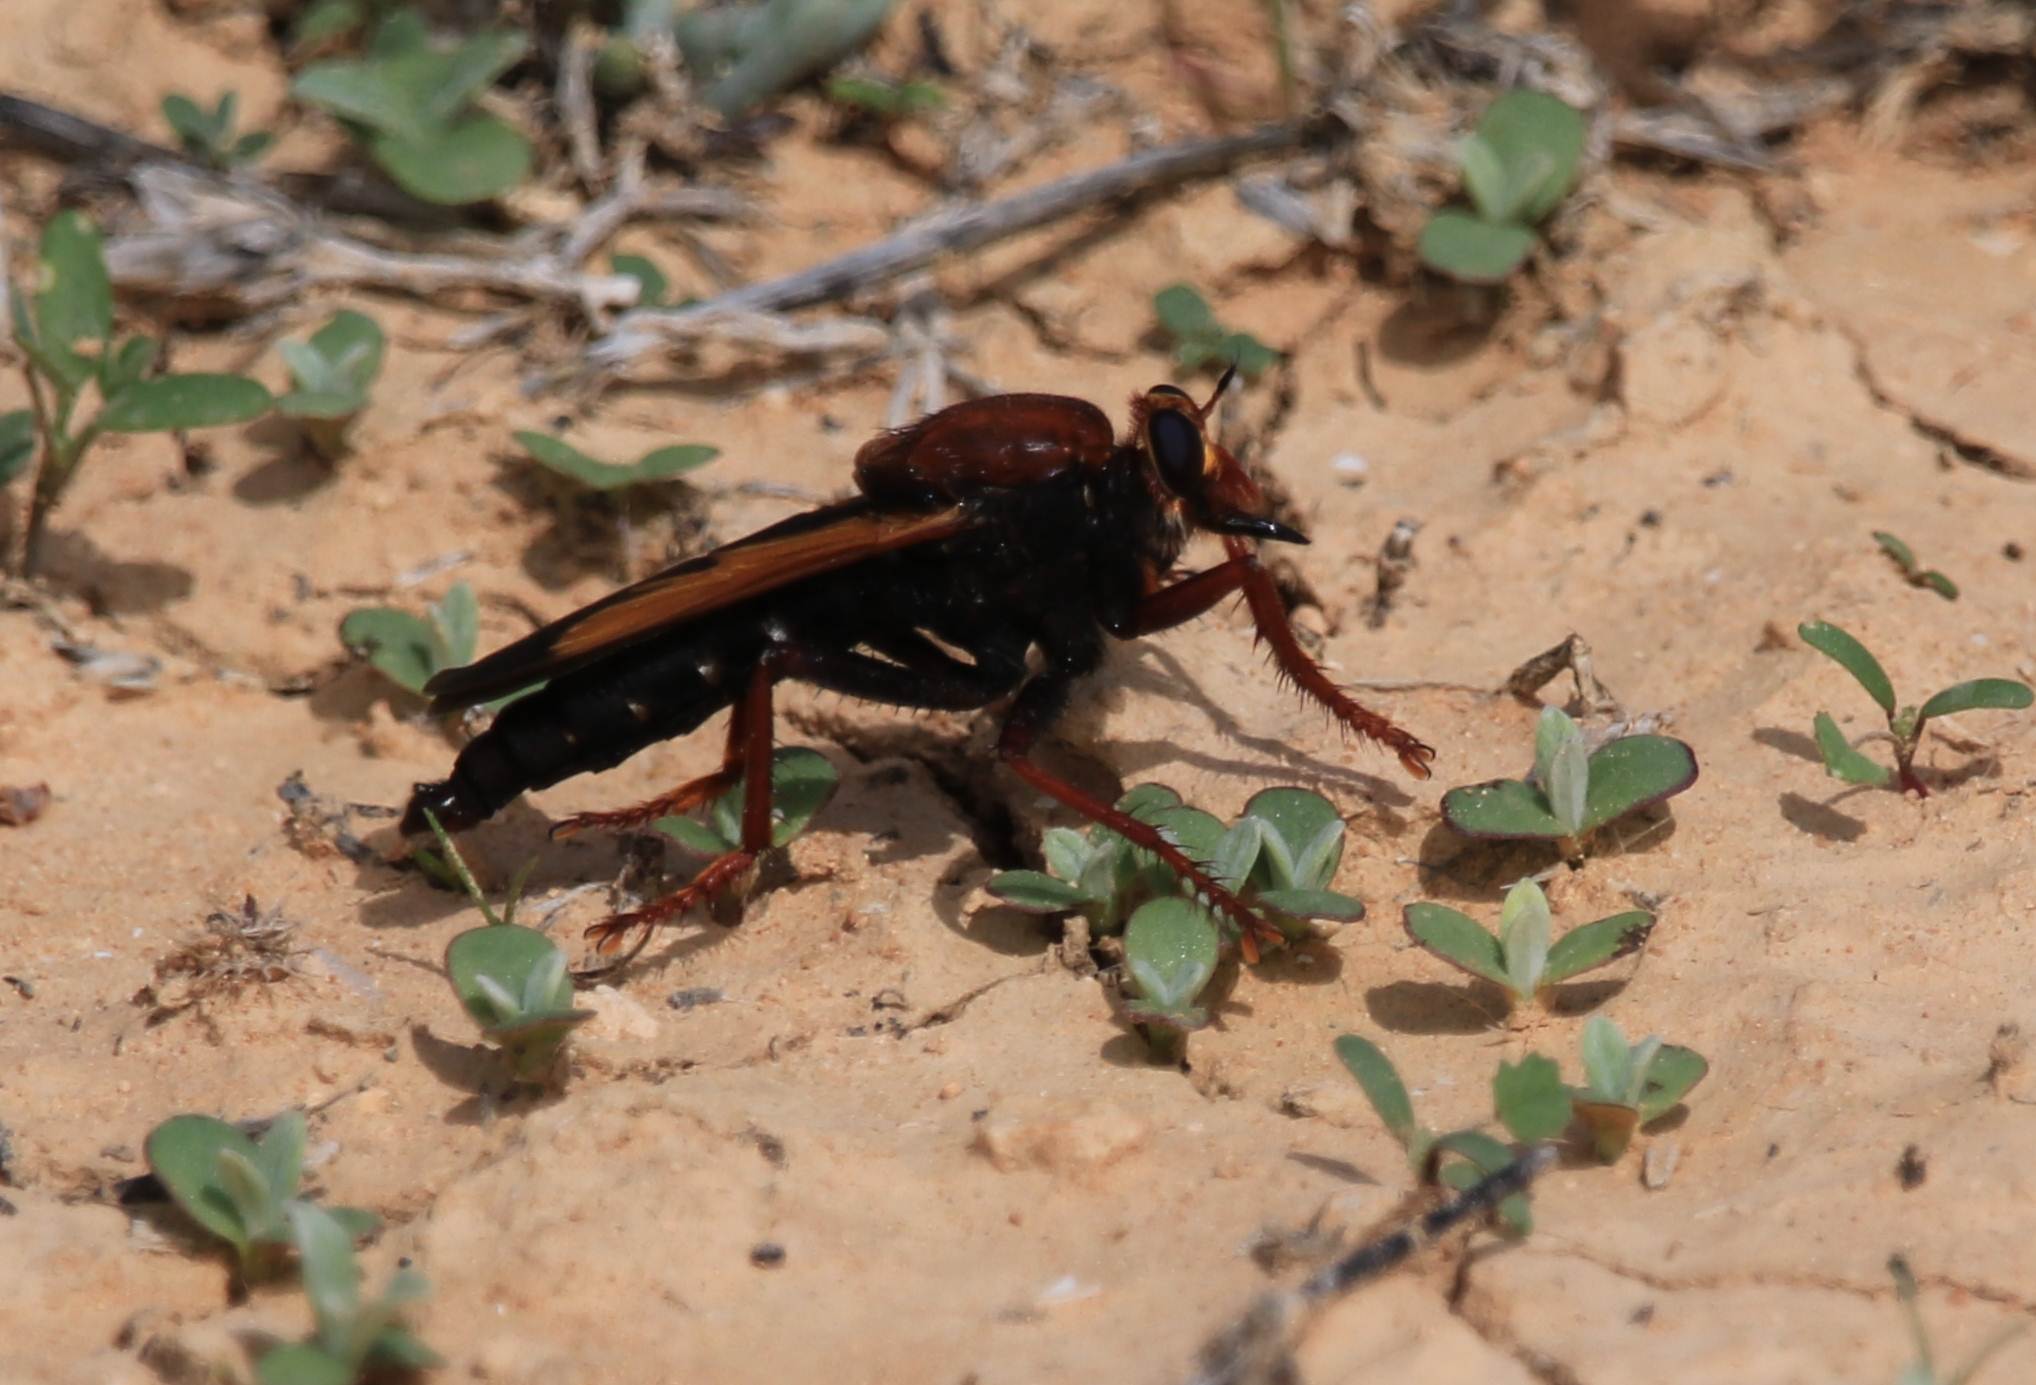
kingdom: Animalia
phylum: Arthropoda
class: Insecta
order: Diptera
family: Asilidae
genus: Asilus
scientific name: Asilus barbarus
